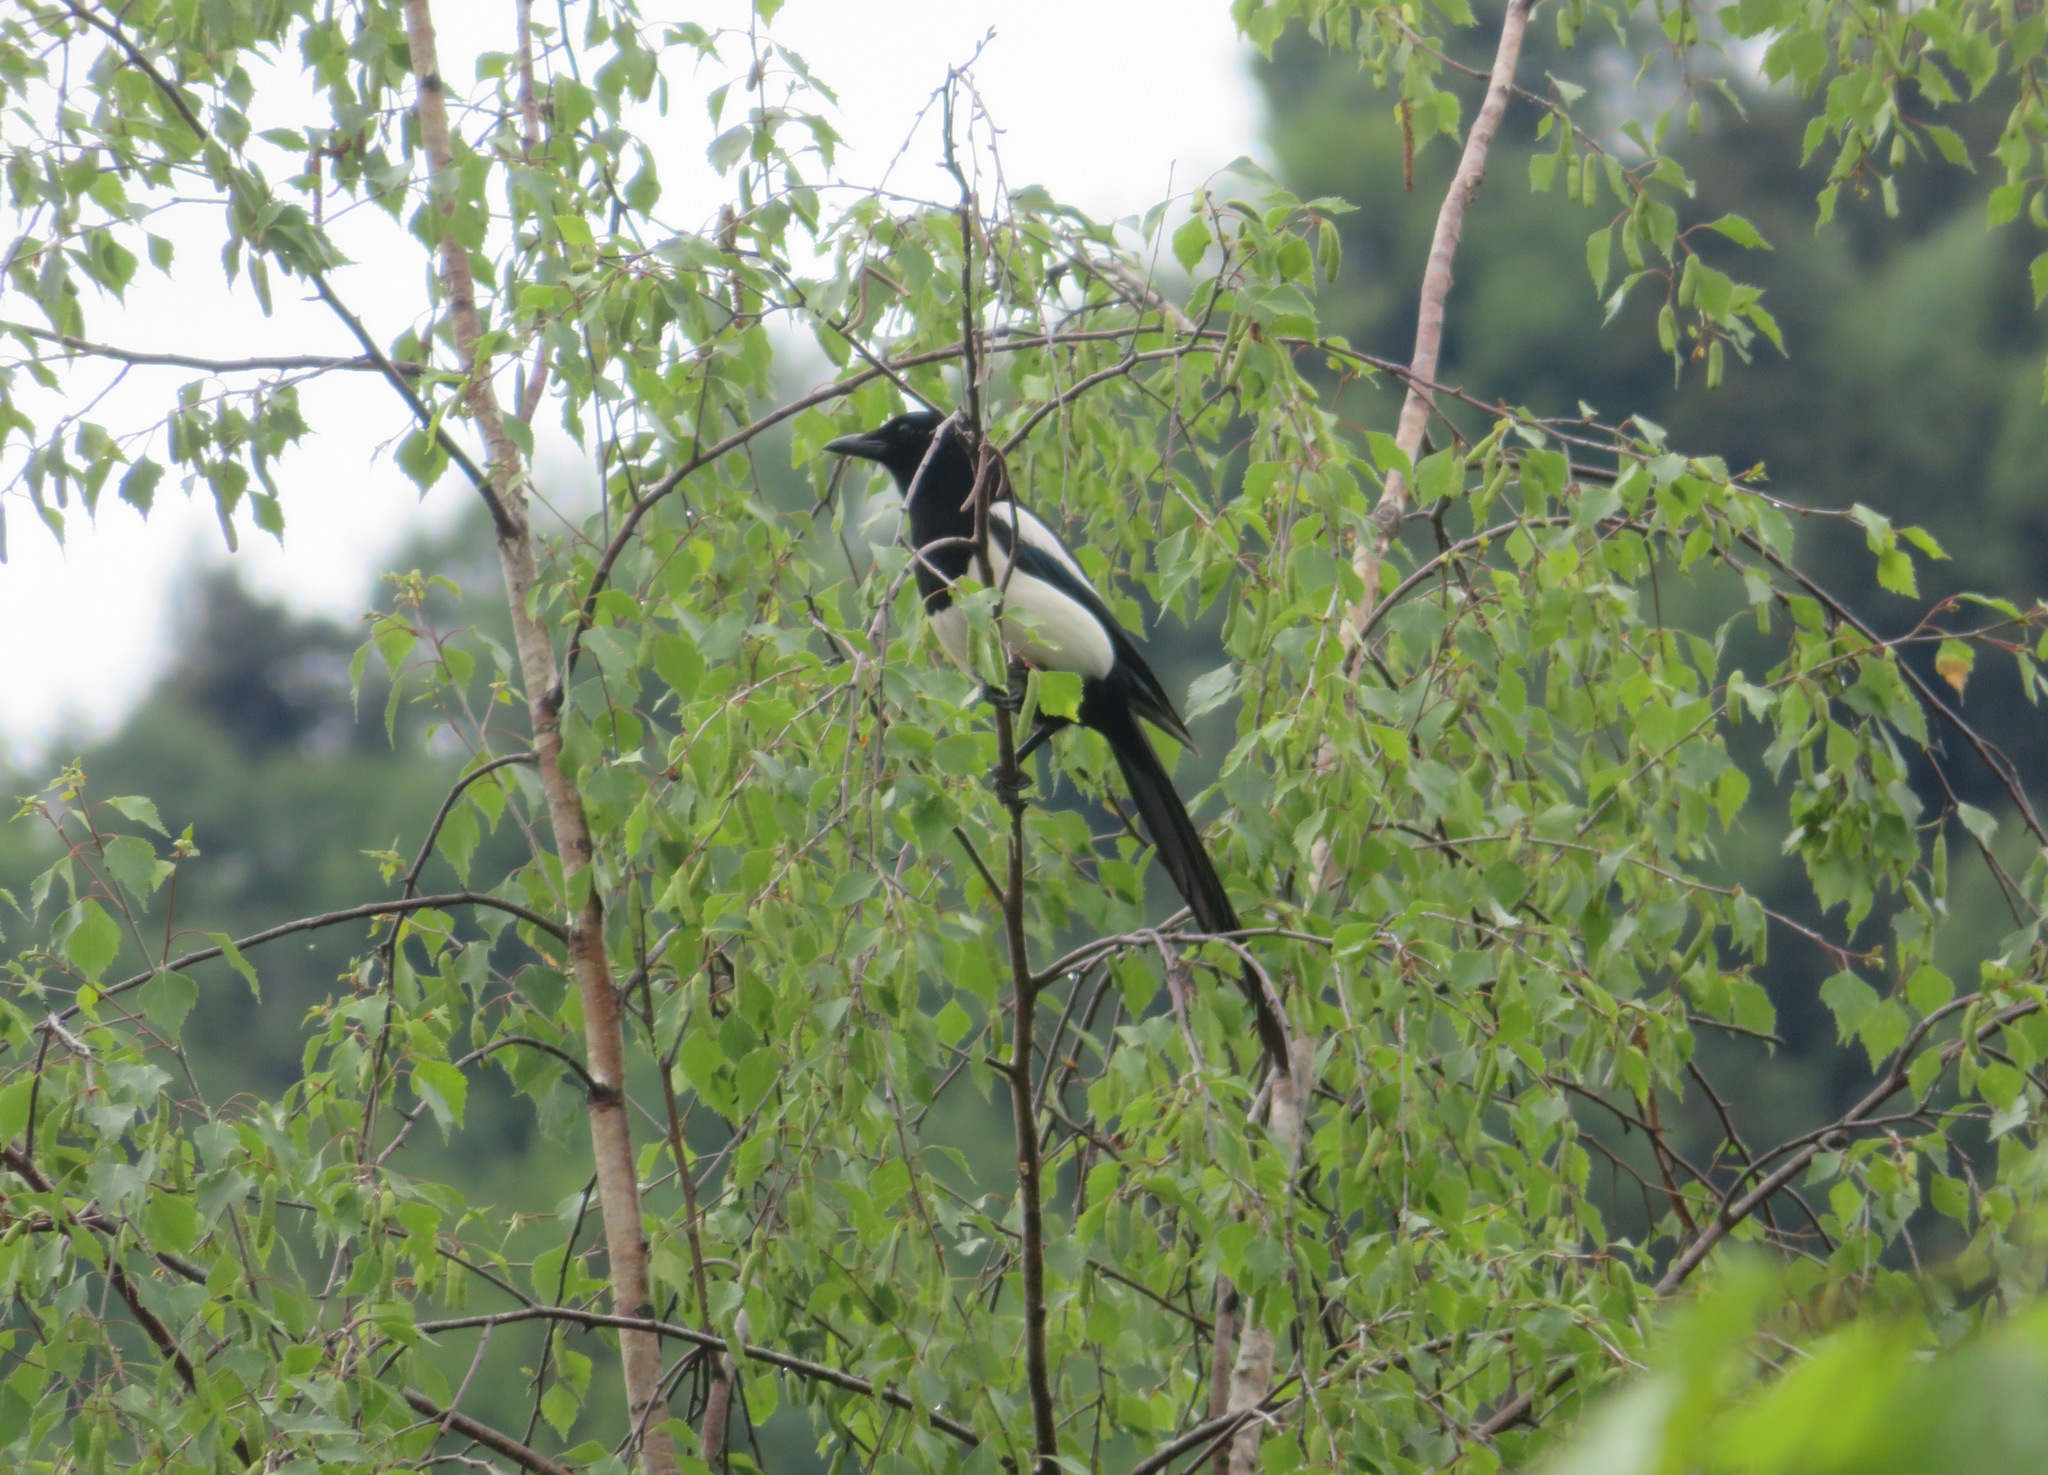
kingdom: Animalia
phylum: Chordata
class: Aves
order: Passeriformes
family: Corvidae
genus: Pica
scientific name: Pica pica
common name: Eurasian magpie
